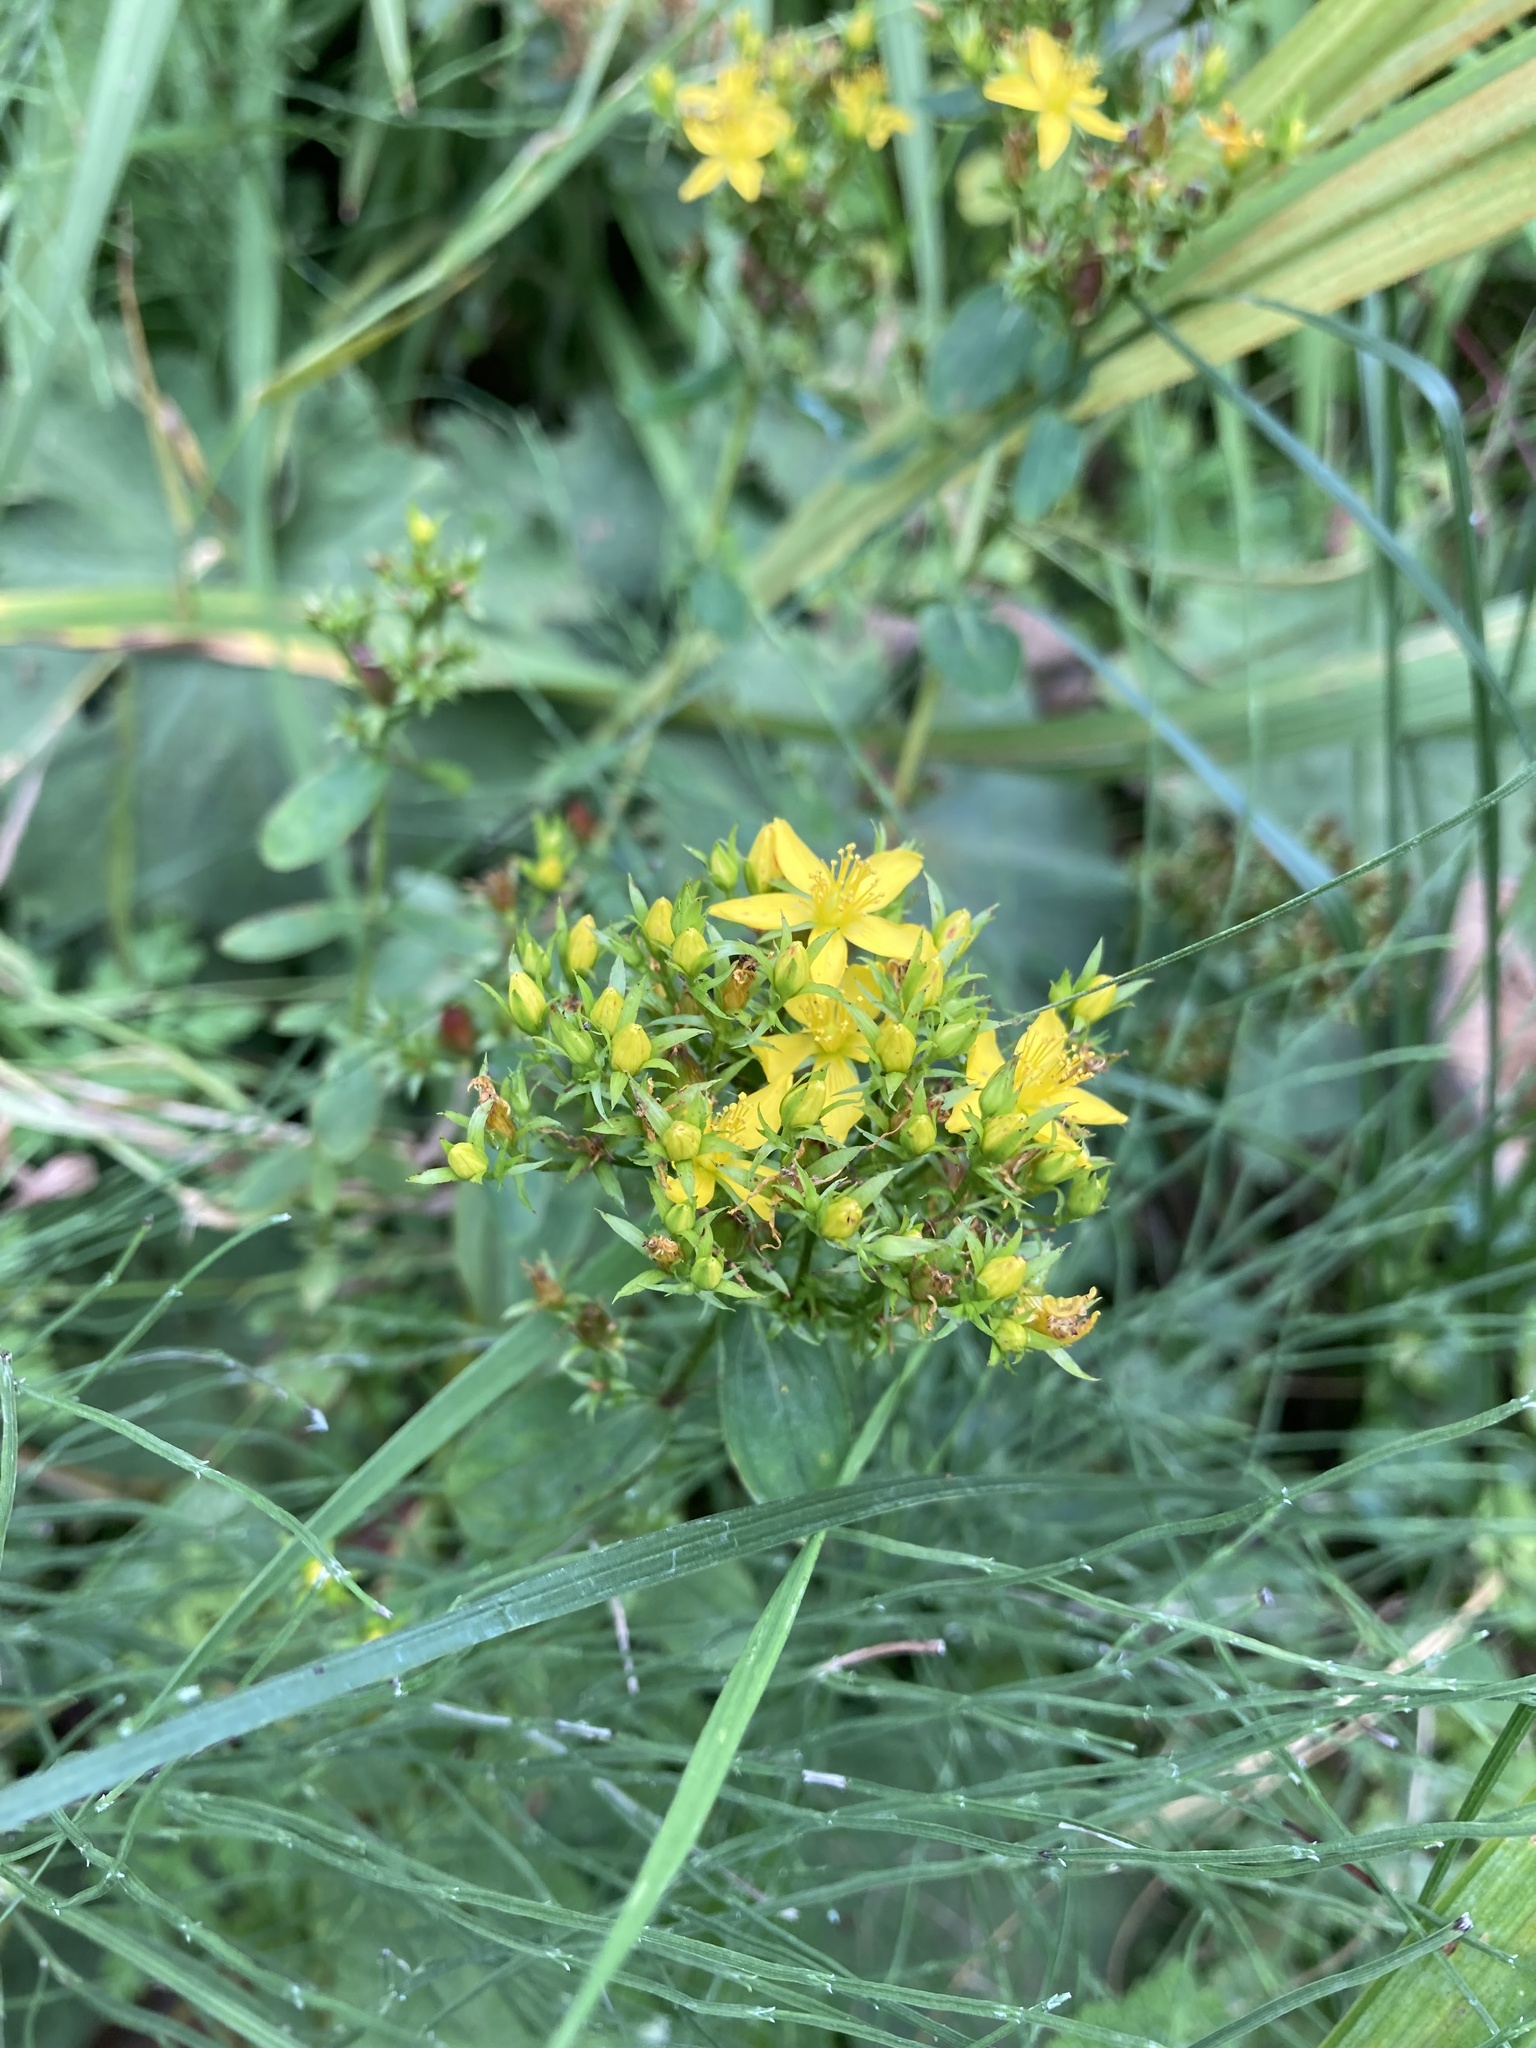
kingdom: Plantae
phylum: Tracheophyta
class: Magnoliopsida
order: Malpighiales
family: Hypericaceae
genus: Hypericum
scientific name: Hypericum tetrapterum
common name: Square-stalked st. john's-wort
